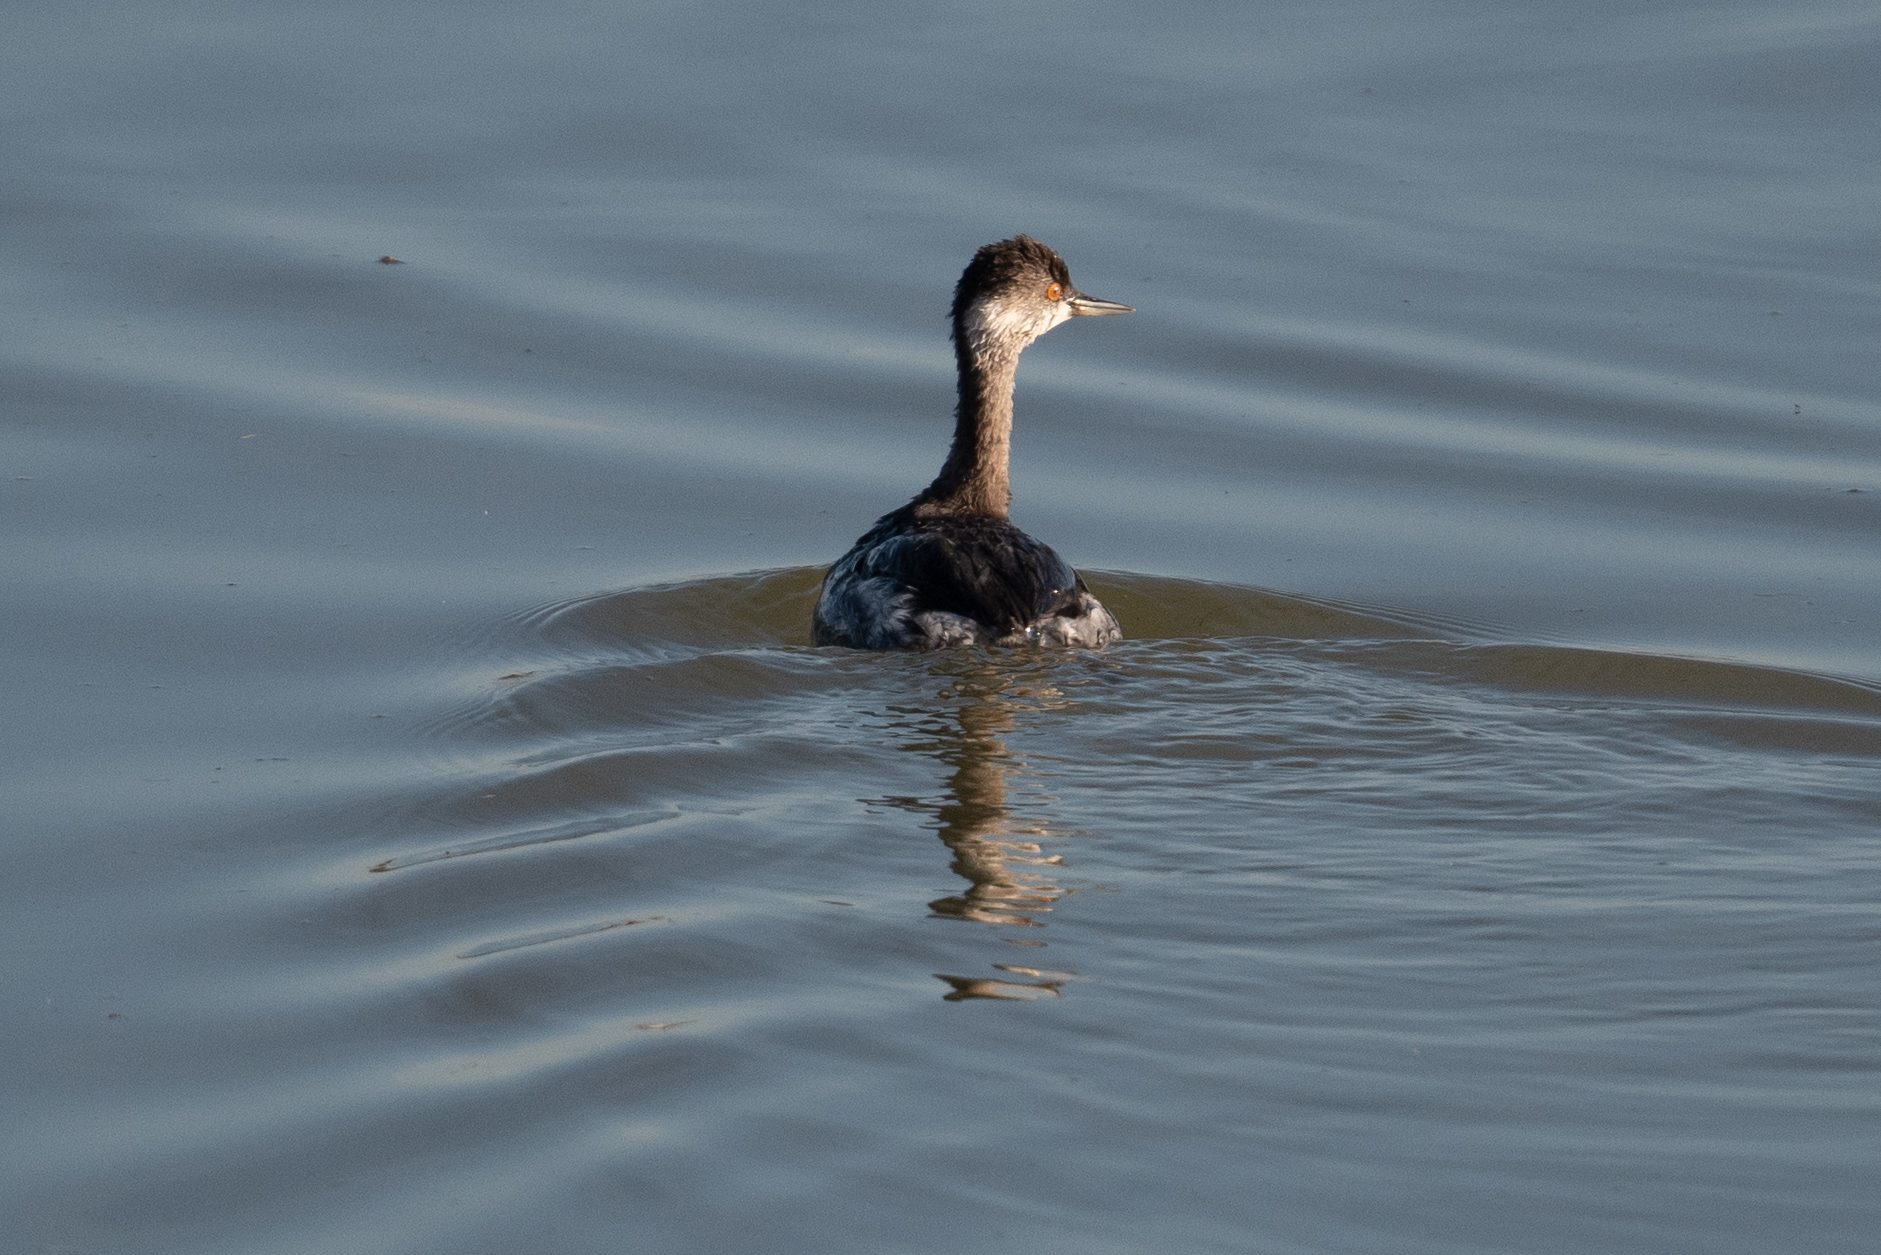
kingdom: Animalia
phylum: Chordata
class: Aves
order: Podicipediformes
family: Podicipedidae
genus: Podiceps
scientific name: Podiceps nigricollis
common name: Black-necked grebe
